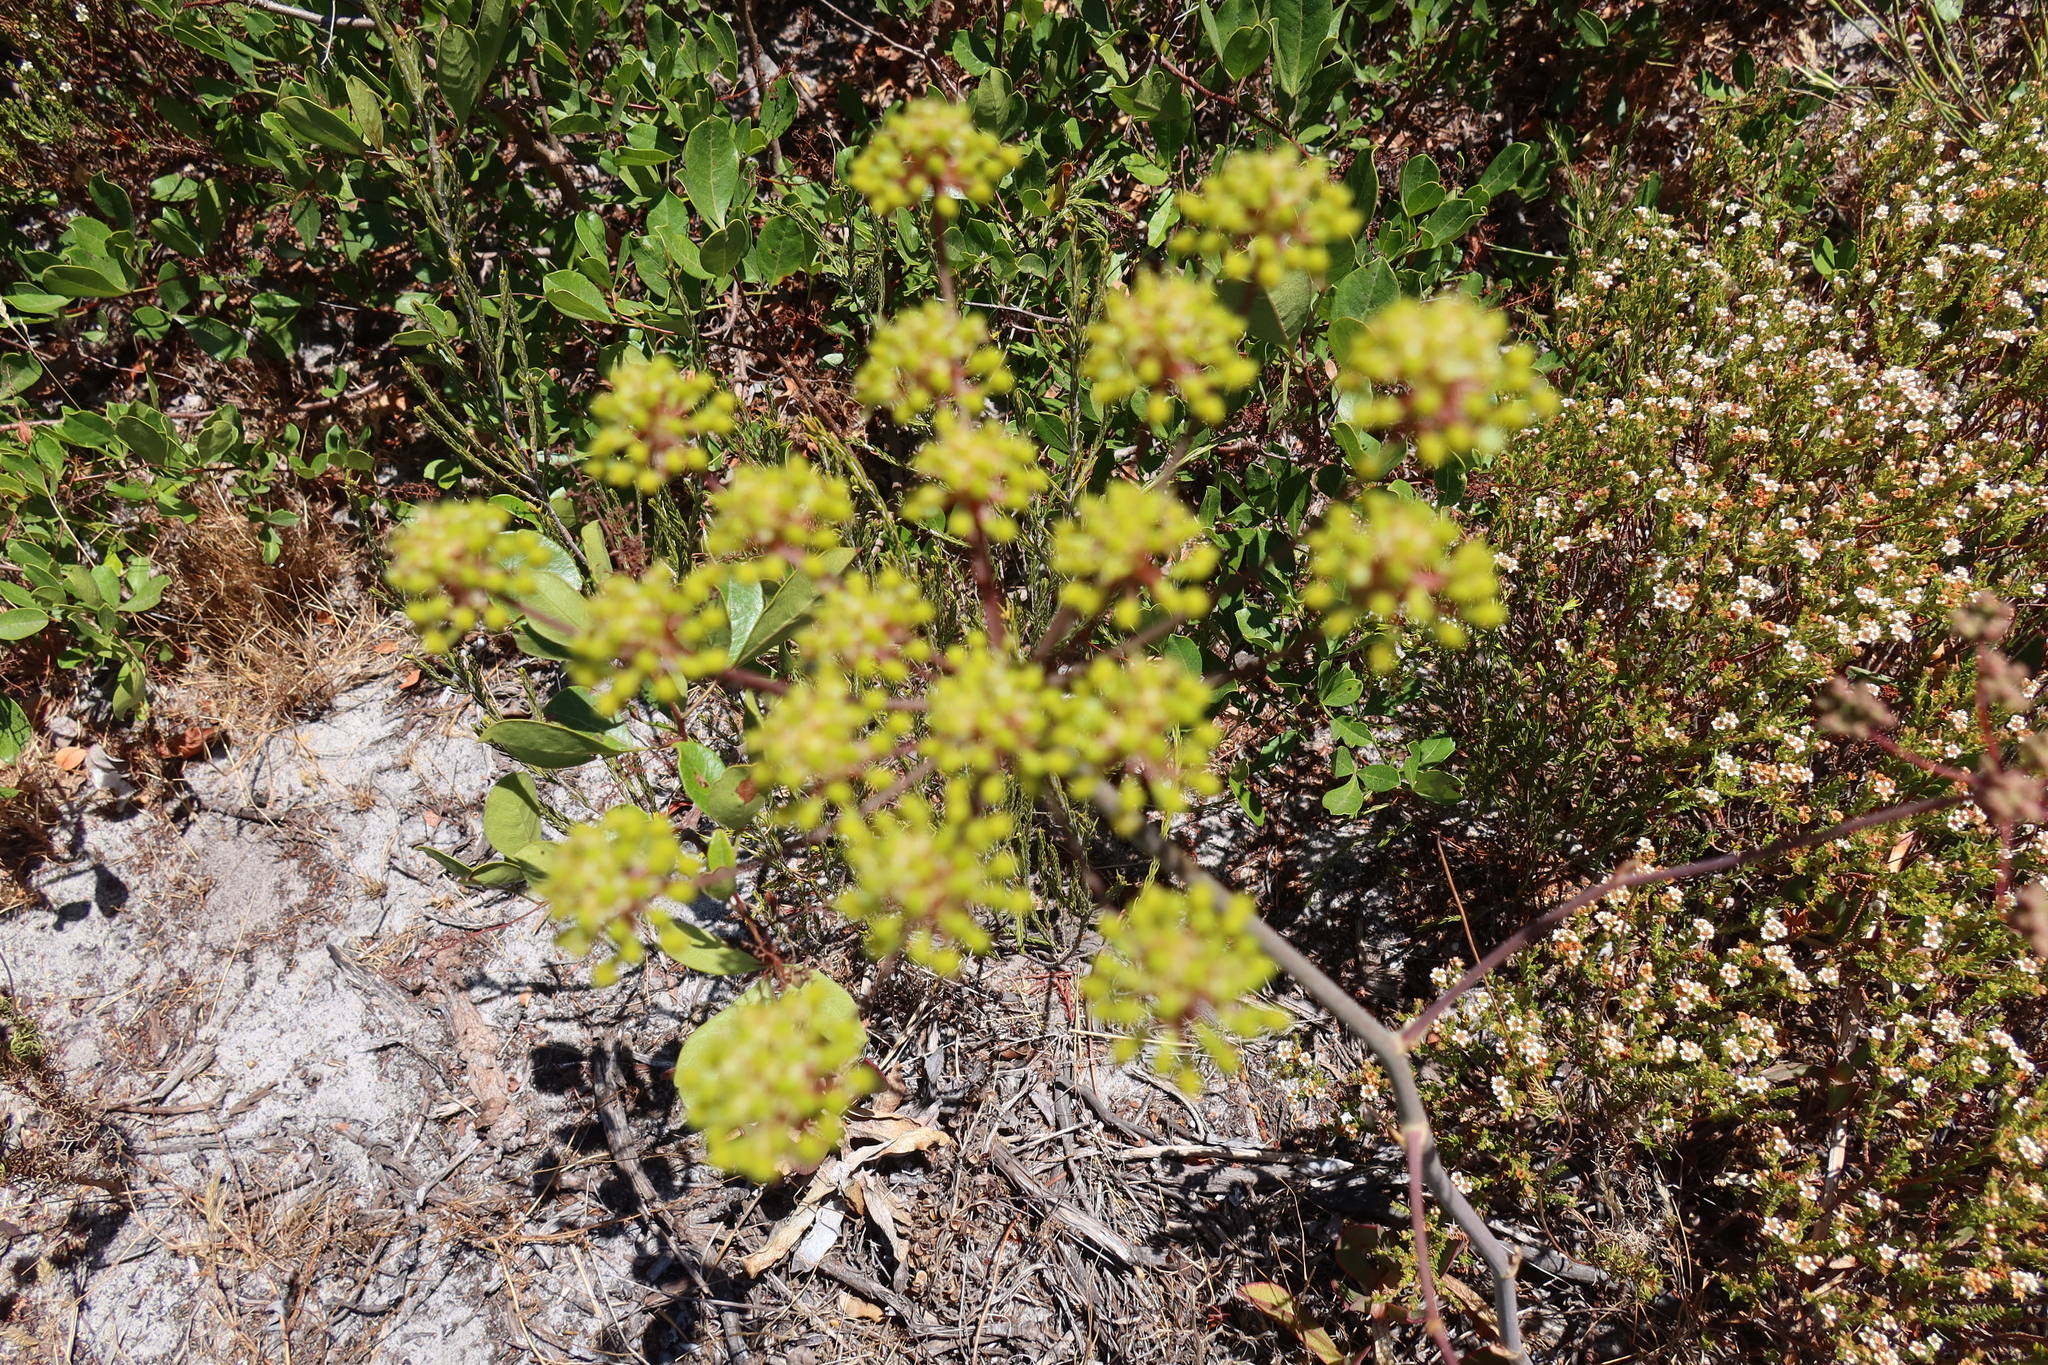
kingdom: Plantae
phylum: Tracheophyta
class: Magnoliopsida
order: Apiales
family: Apiaceae
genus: Annesorhiza
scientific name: Annesorhiza macrocarpa
